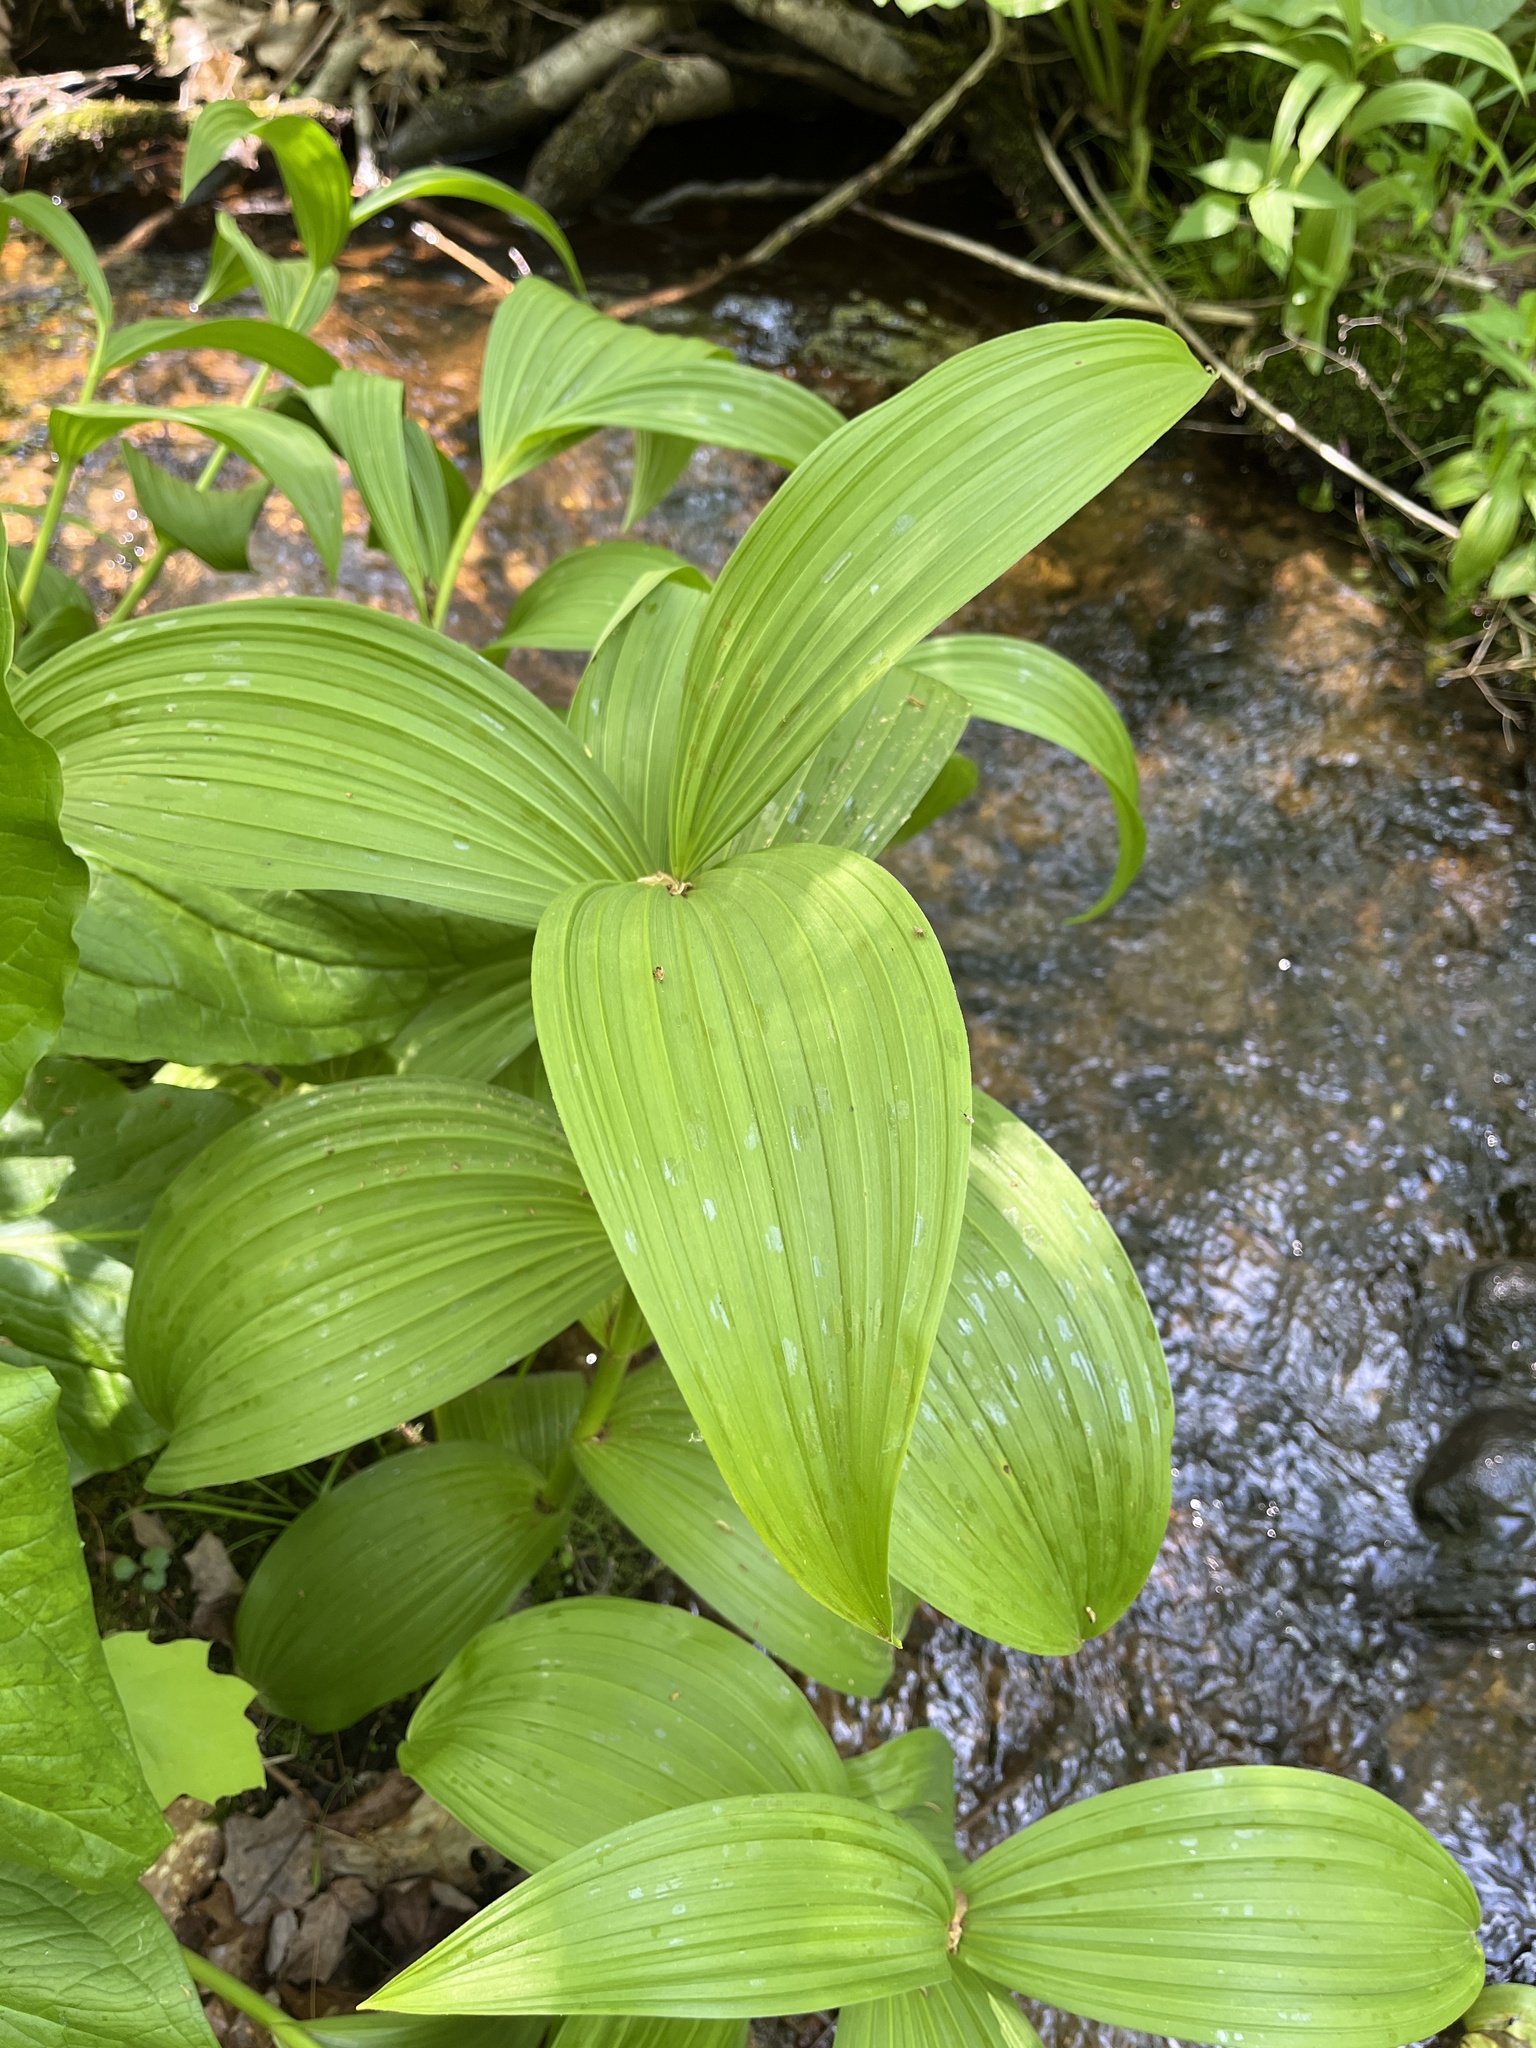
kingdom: Plantae
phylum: Tracheophyta
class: Liliopsida
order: Liliales
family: Melanthiaceae
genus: Veratrum
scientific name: Veratrum viride
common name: American false hellebore
